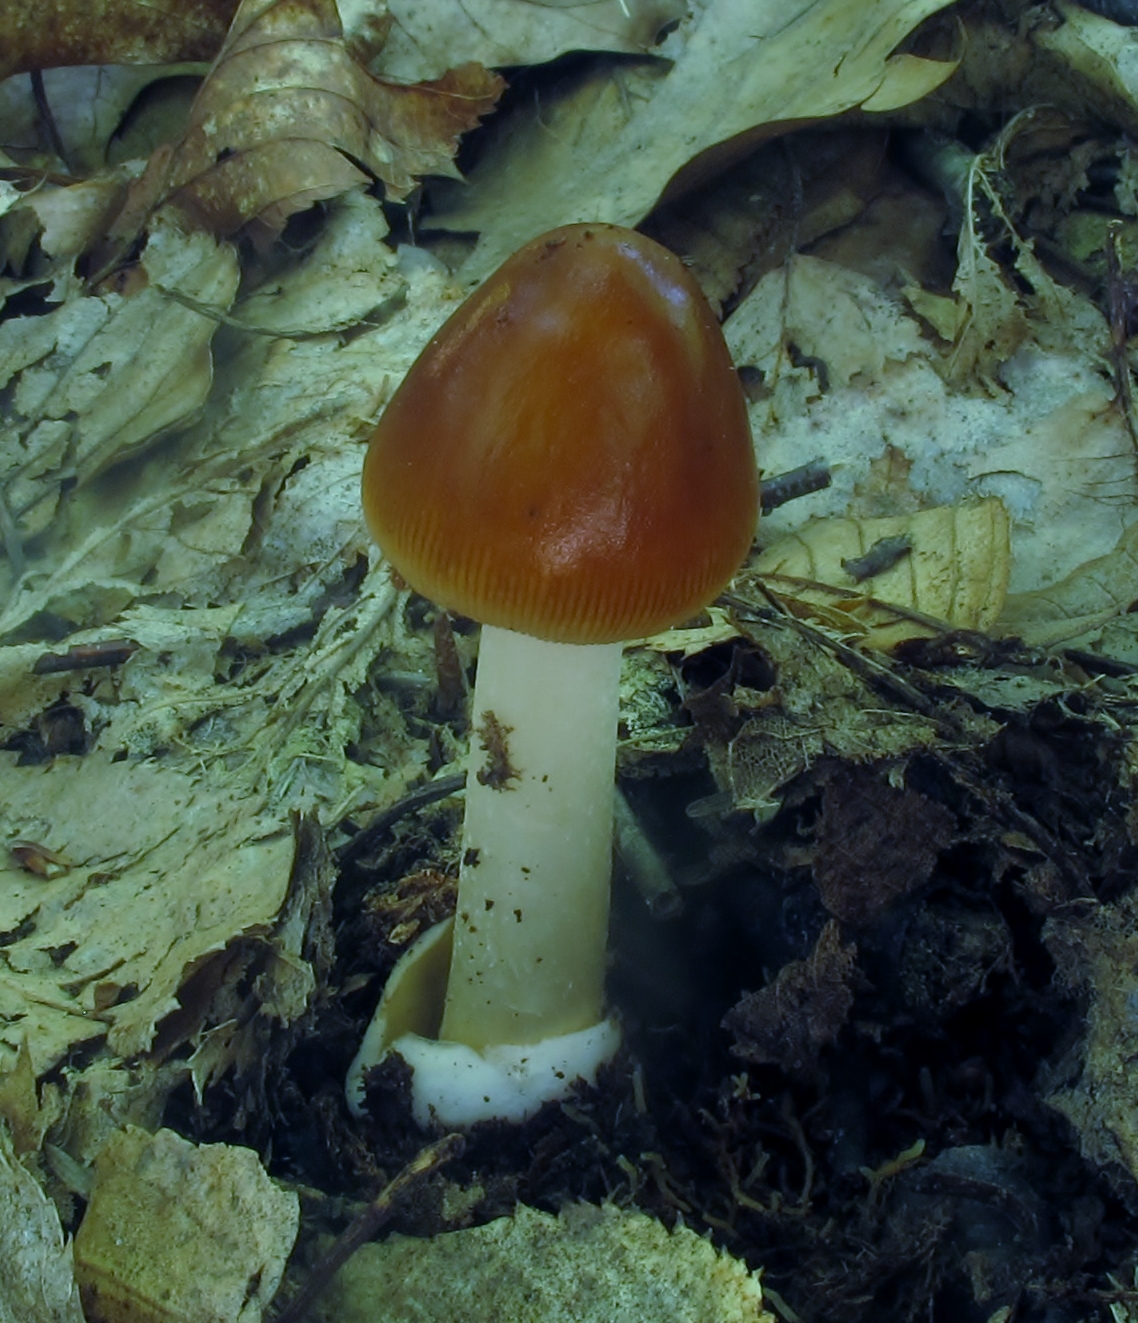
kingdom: Fungi
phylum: Basidiomycota
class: Agaricomycetes
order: Agaricales
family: Amanitaceae
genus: Amanita
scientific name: Amanita fulva
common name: Tawny grisette
